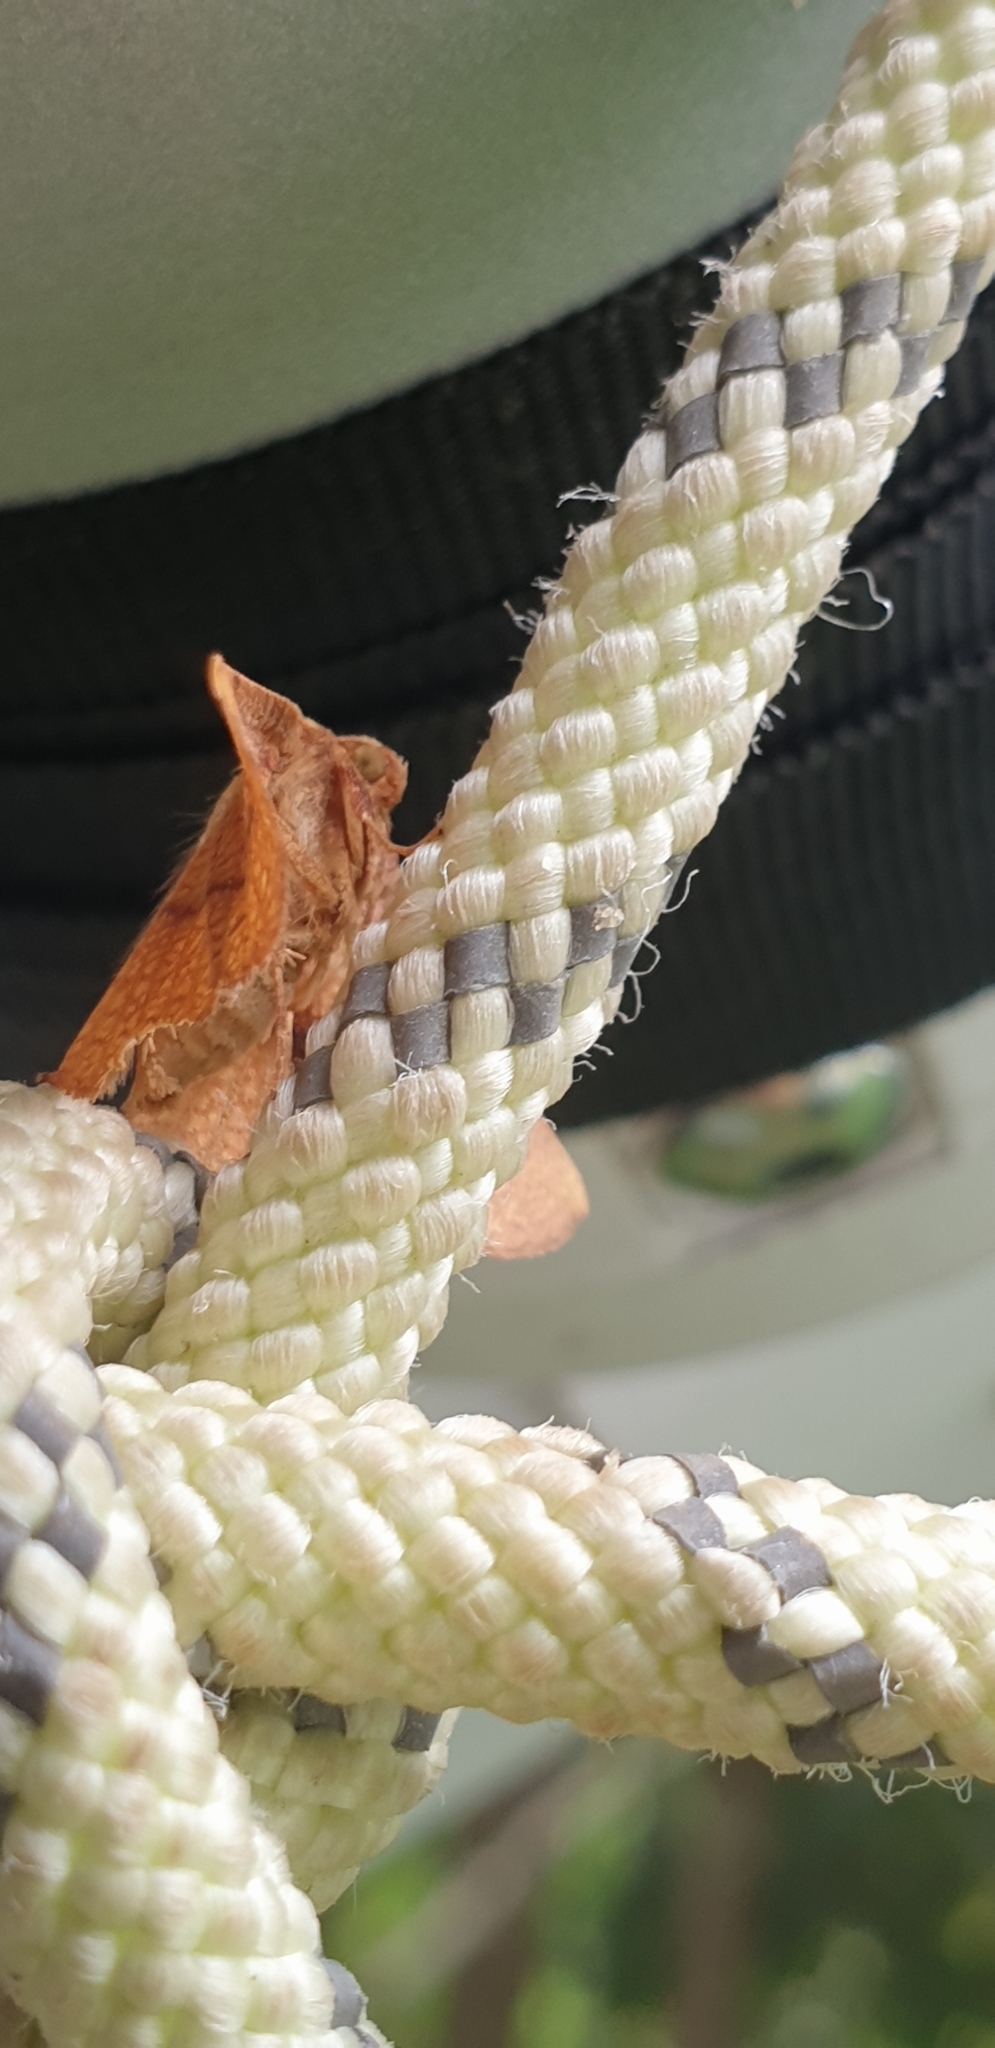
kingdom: Animalia
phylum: Arthropoda
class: Insecta
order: Lepidoptera
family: Thyrididae
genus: Aglaopus
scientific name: Aglaopus pyrrhata
